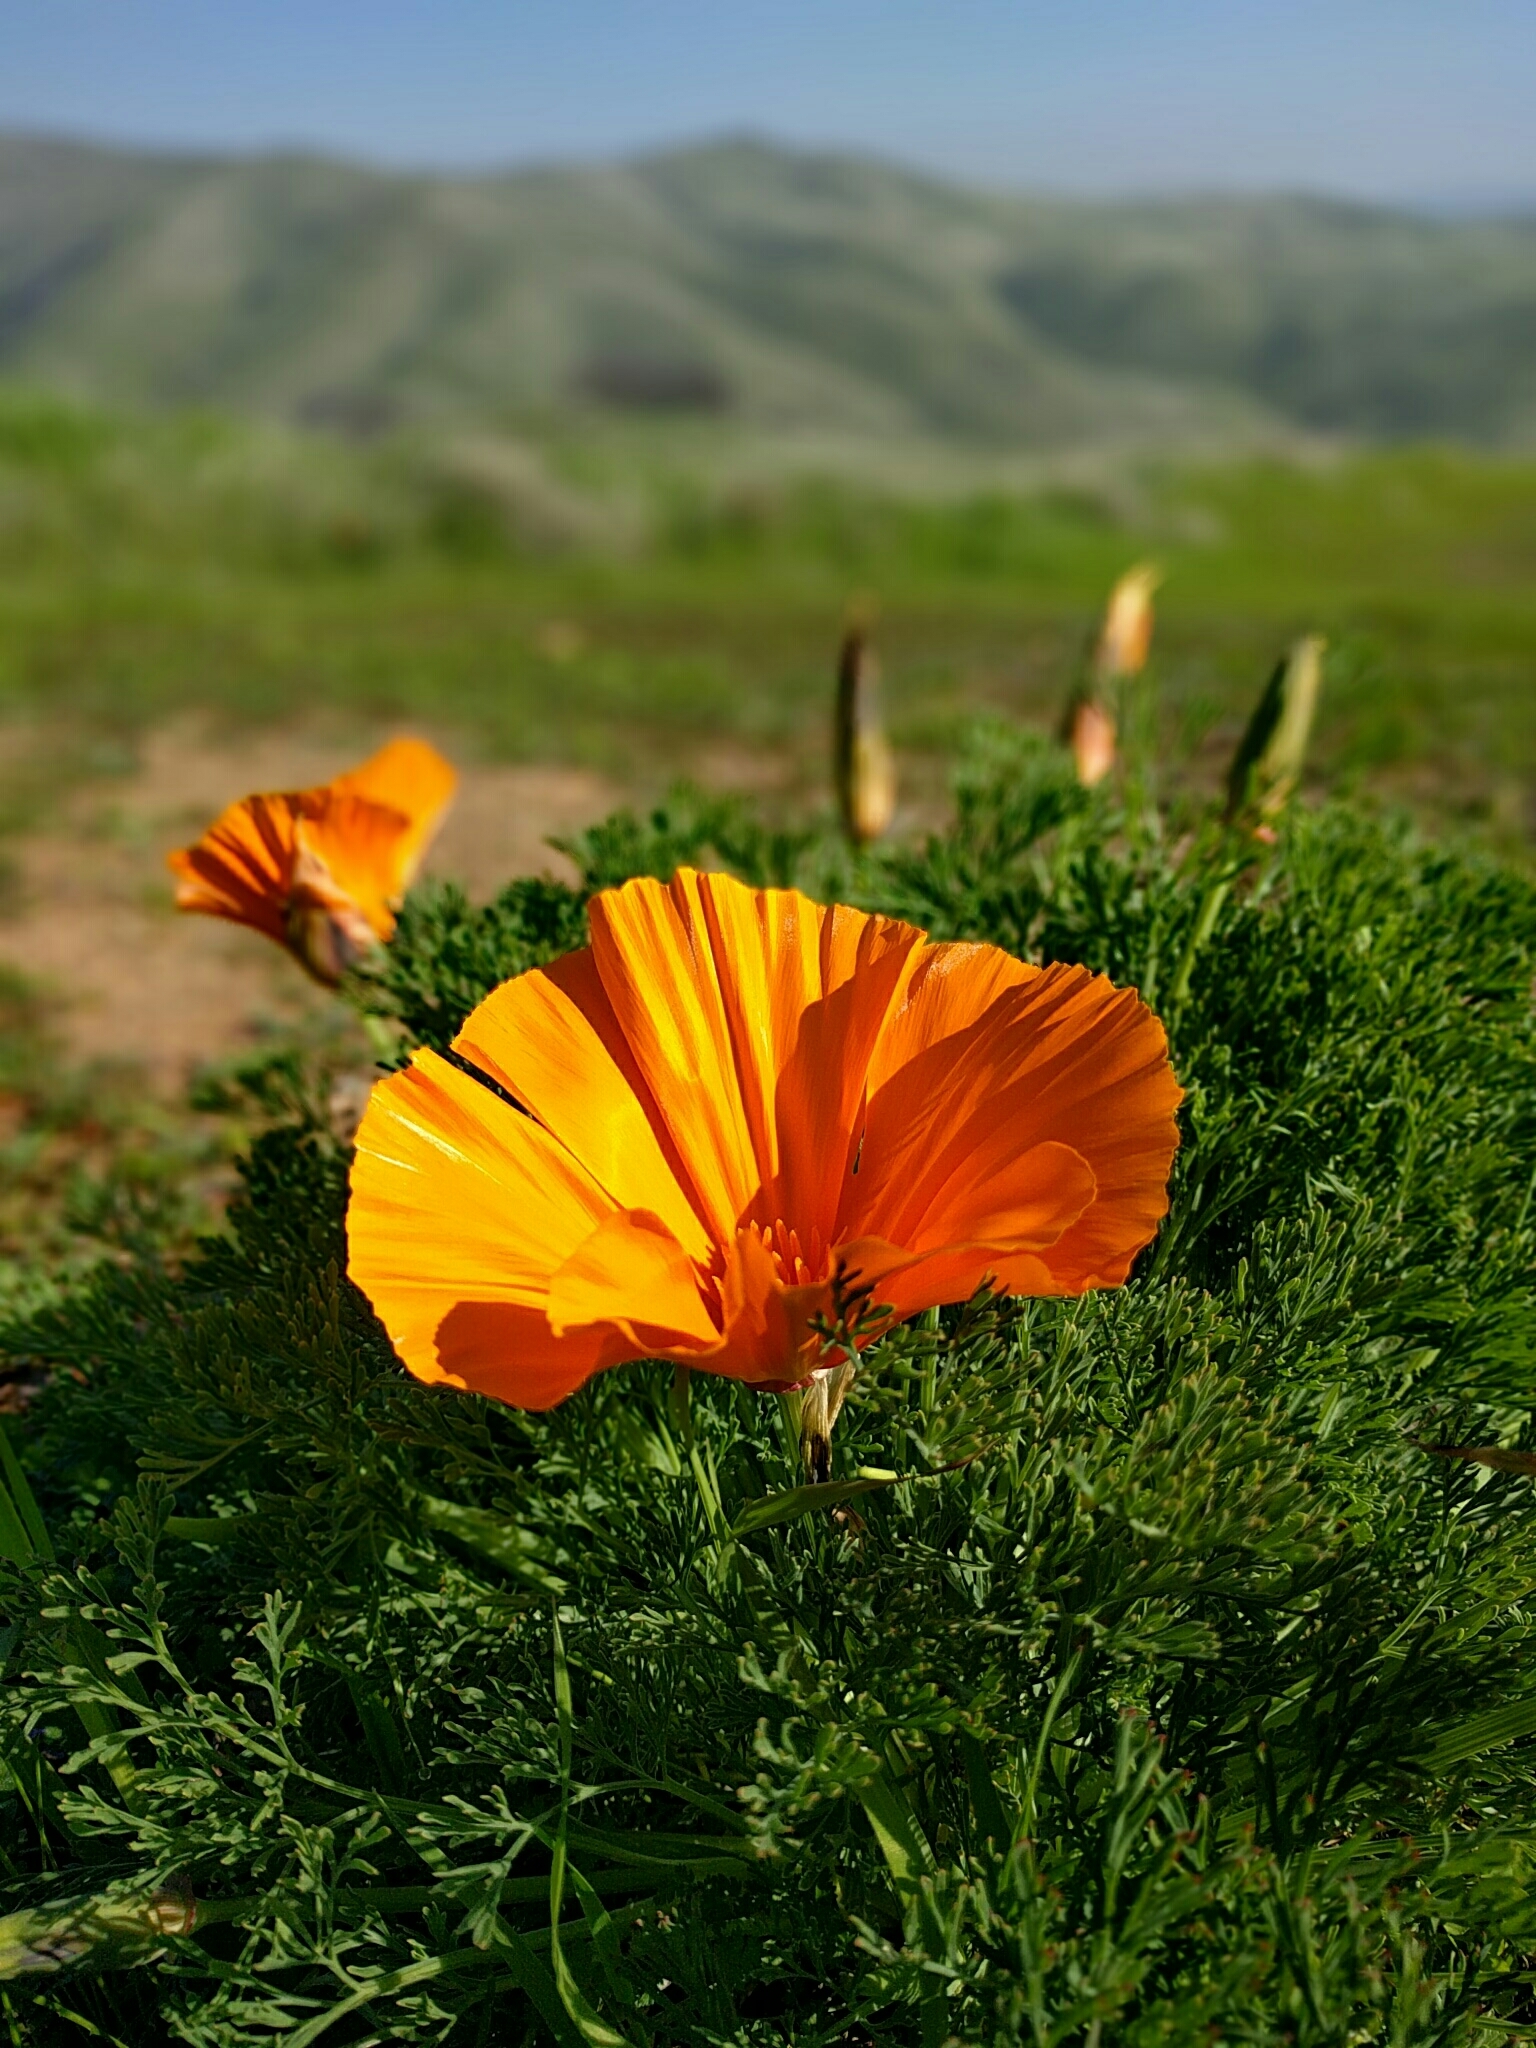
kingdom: Plantae
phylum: Tracheophyta
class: Magnoliopsida
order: Ranunculales
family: Papaveraceae
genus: Eschscholzia
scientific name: Eschscholzia californica
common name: California poppy
